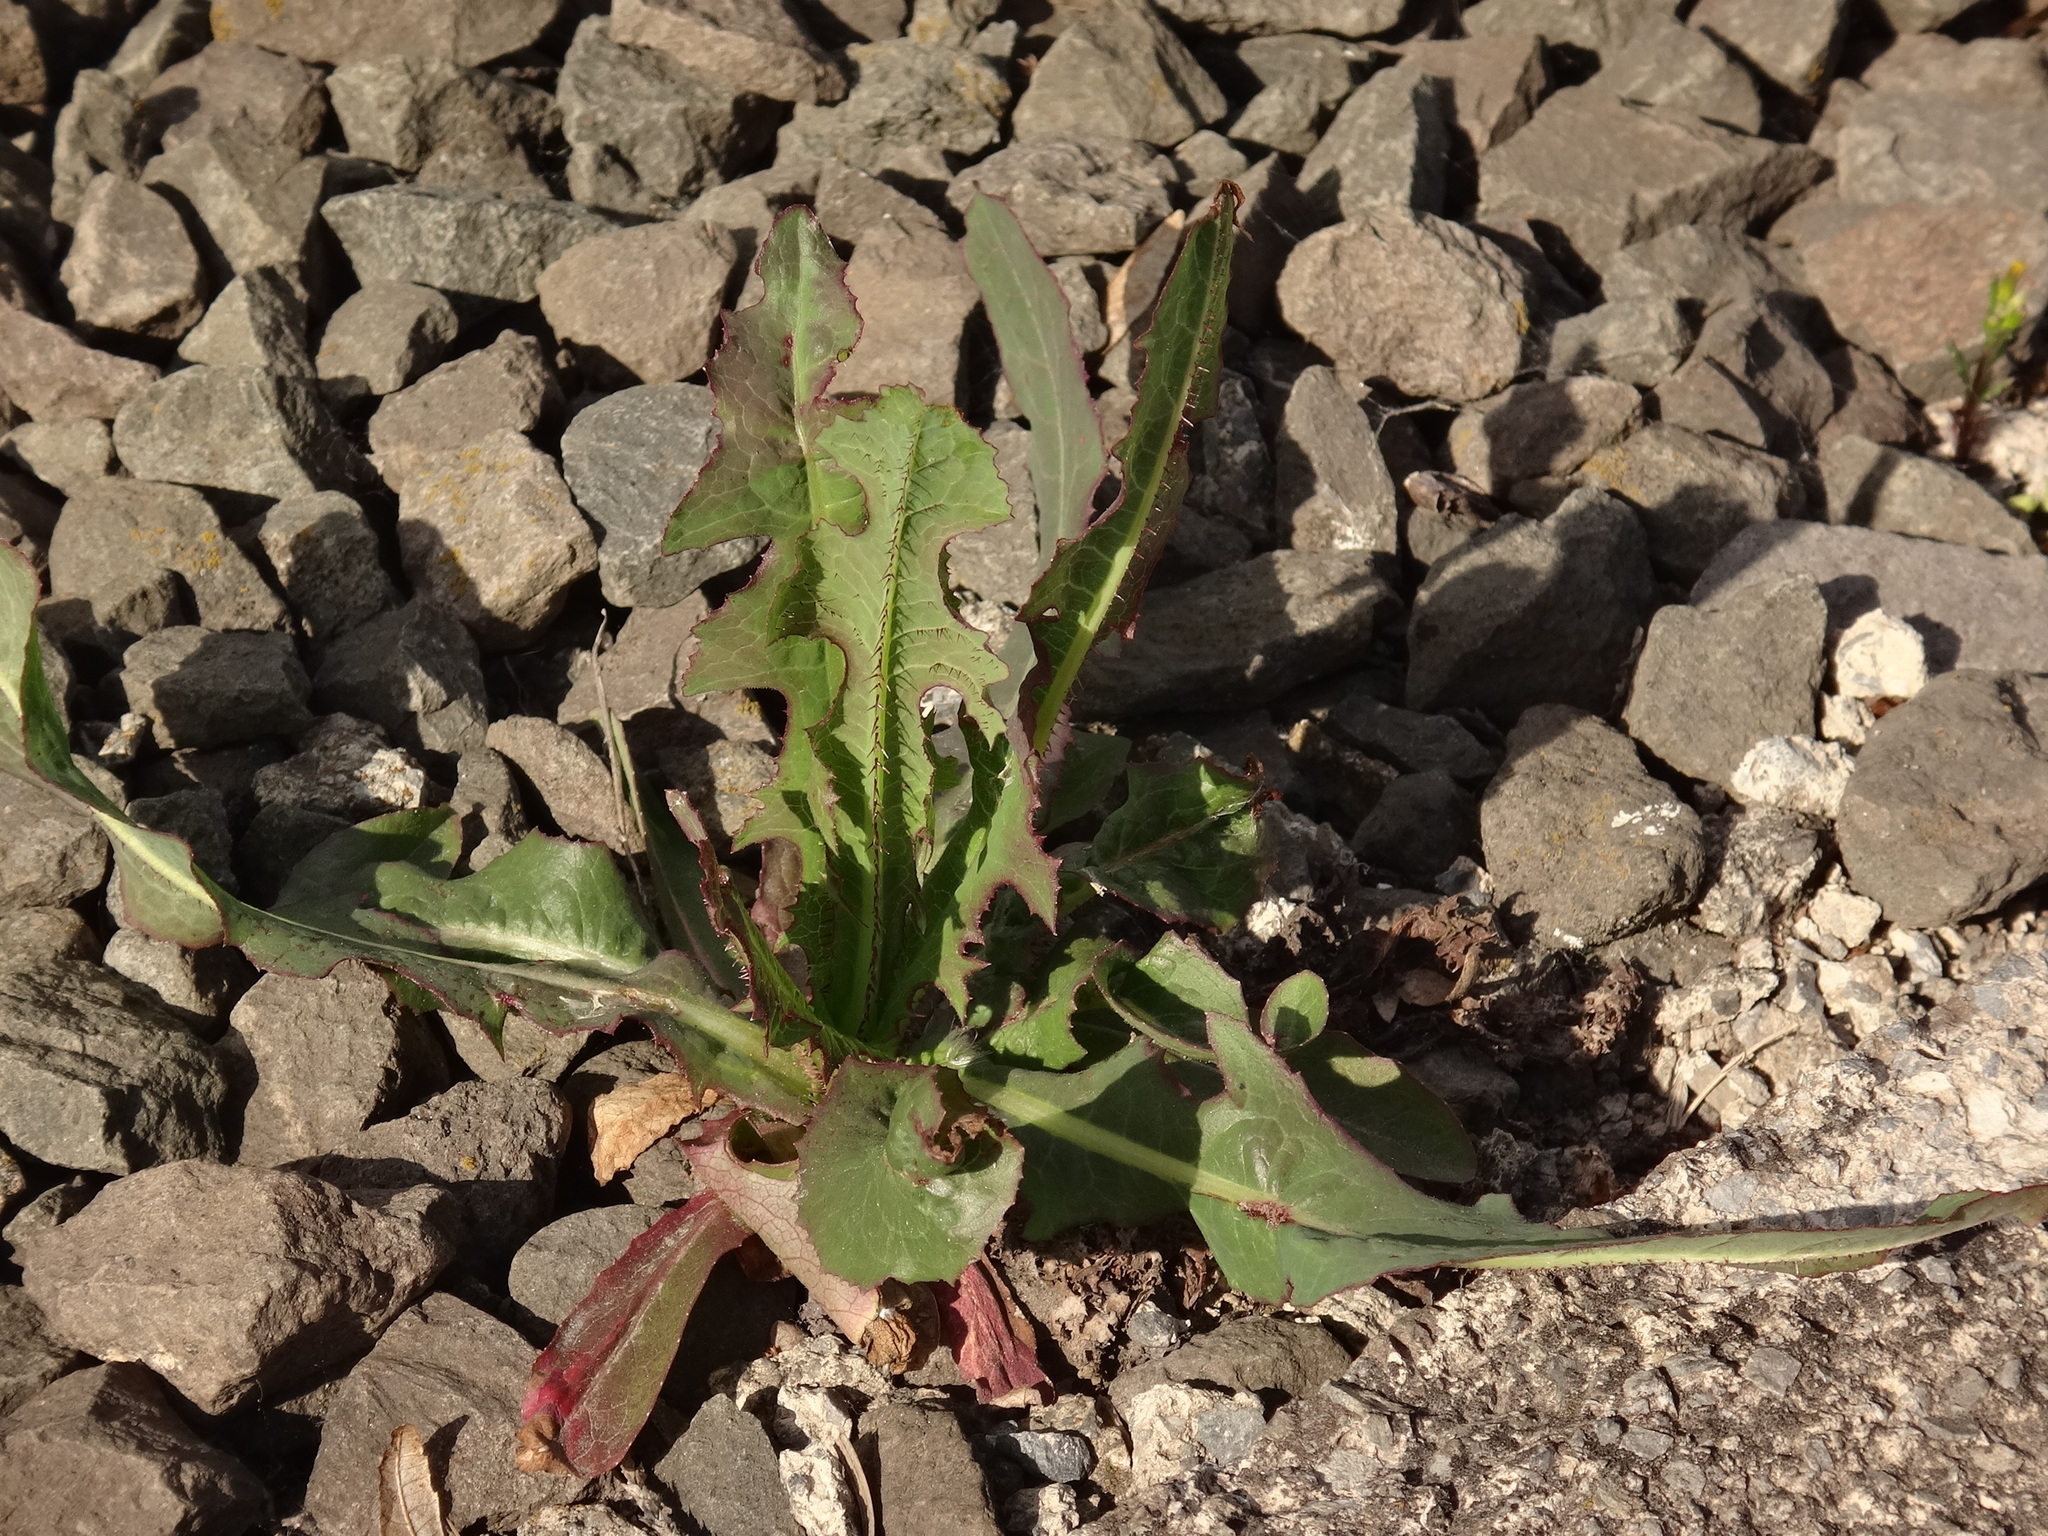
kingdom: Plantae
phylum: Tracheophyta
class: Magnoliopsida
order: Asterales
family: Asteraceae
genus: Lactuca
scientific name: Lactuca serriola
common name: Prickly lettuce
